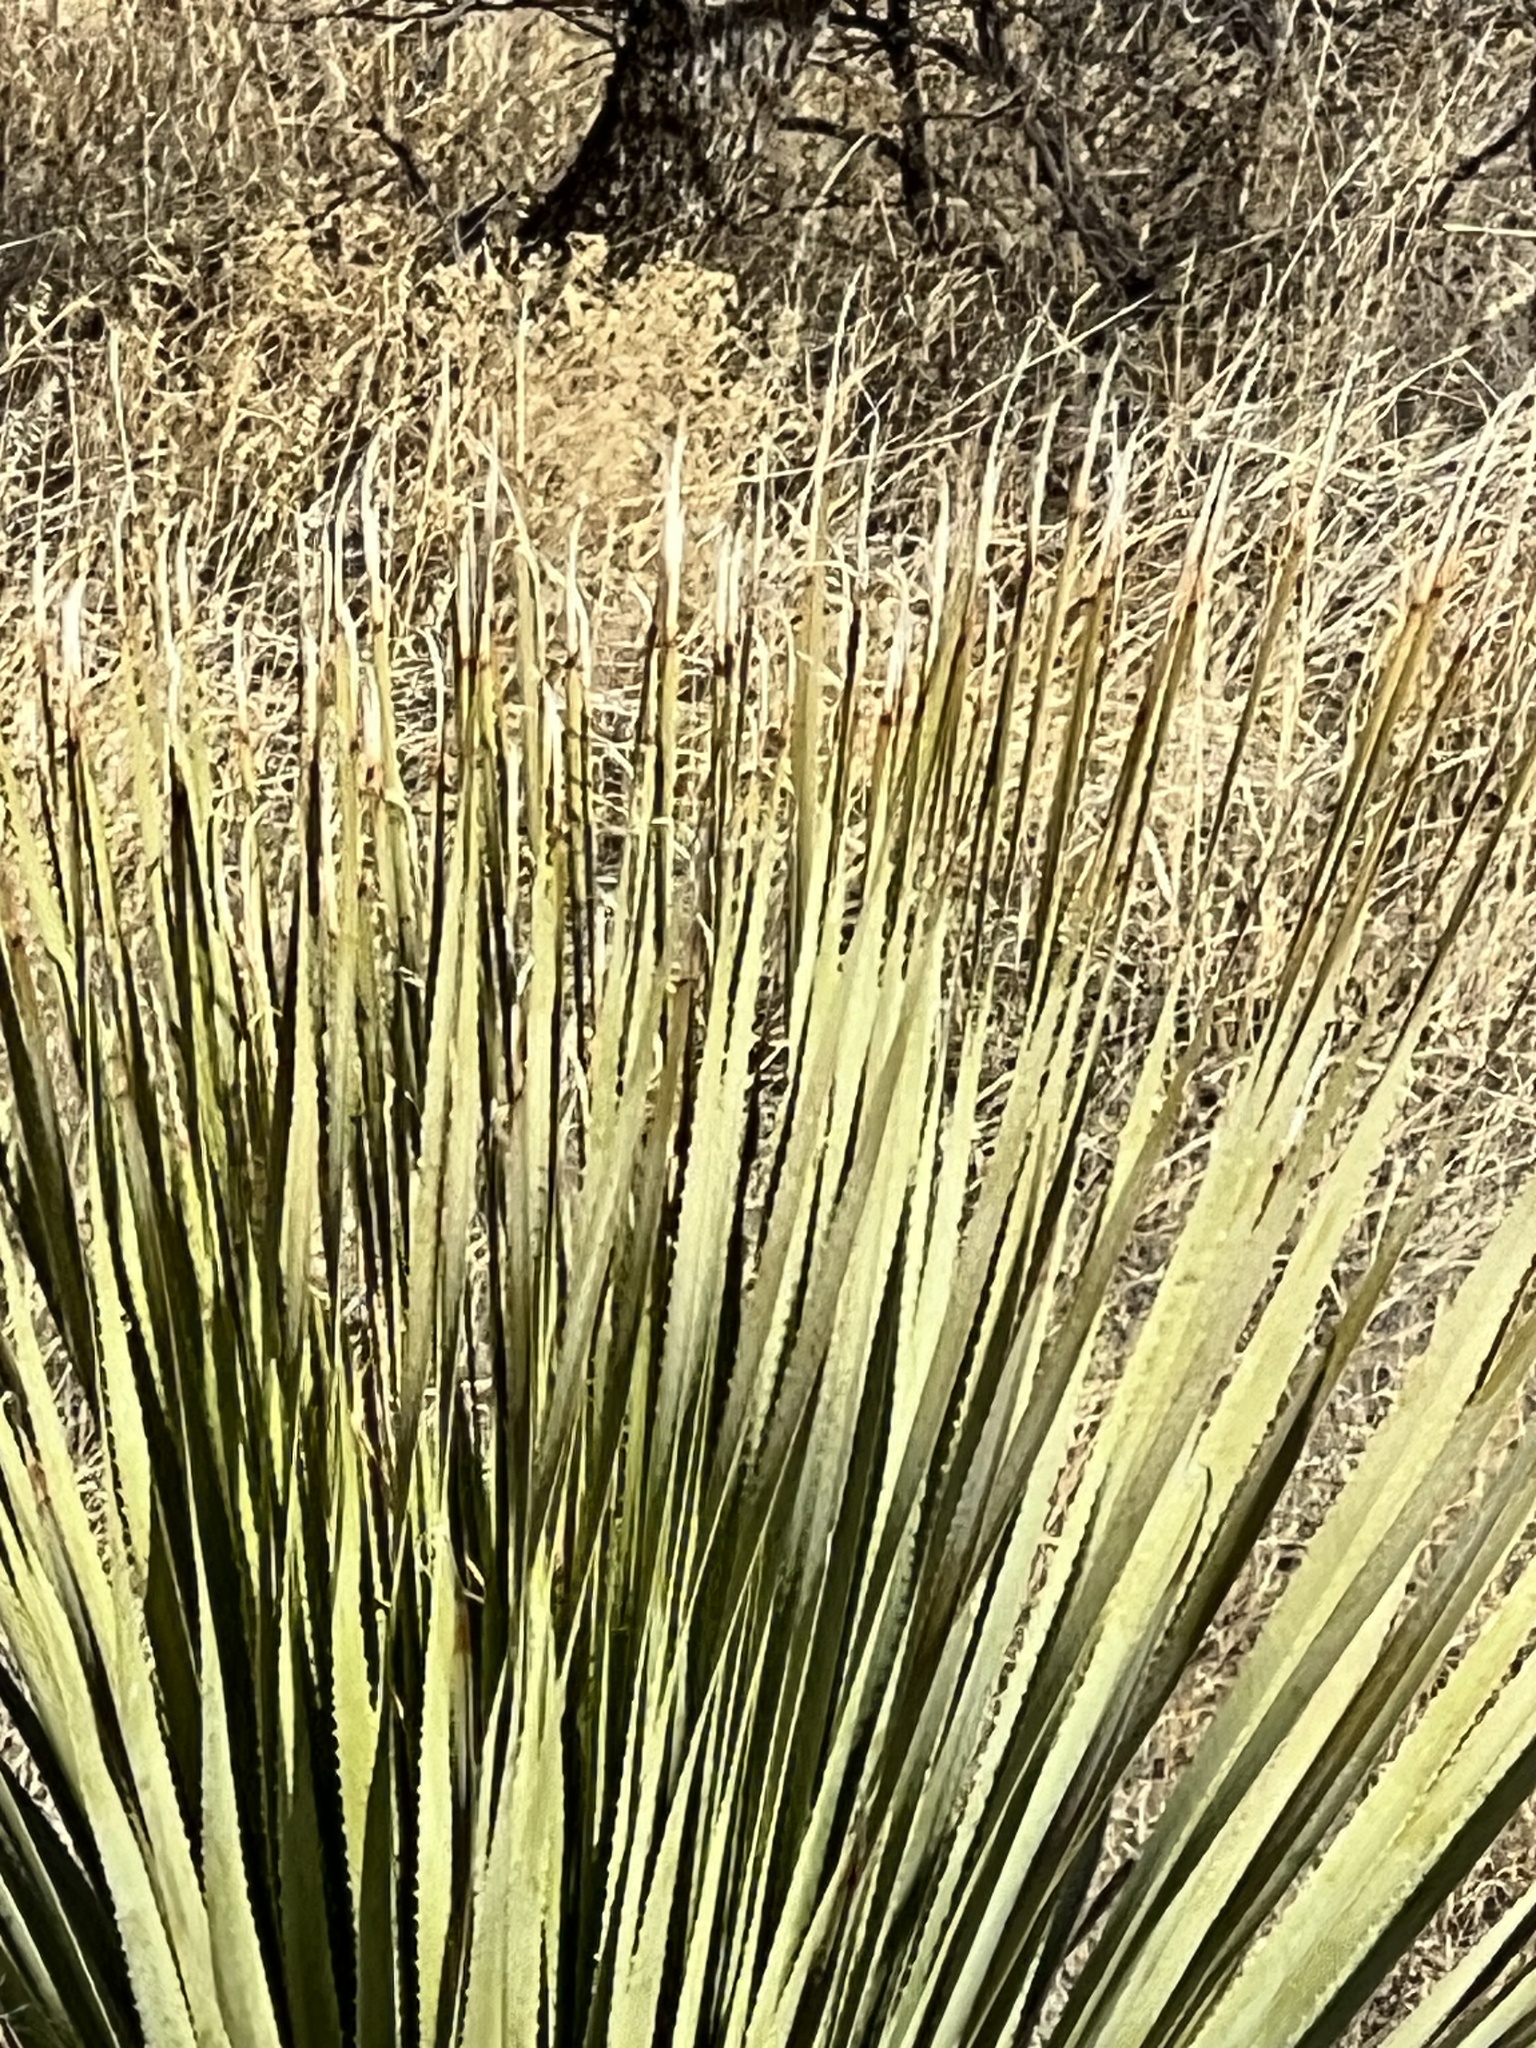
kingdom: Plantae
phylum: Tracheophyta
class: Liliopsida
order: Asparagales
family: Asparagaceae
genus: Dasylirion
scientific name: Dasylirion wheeleri
